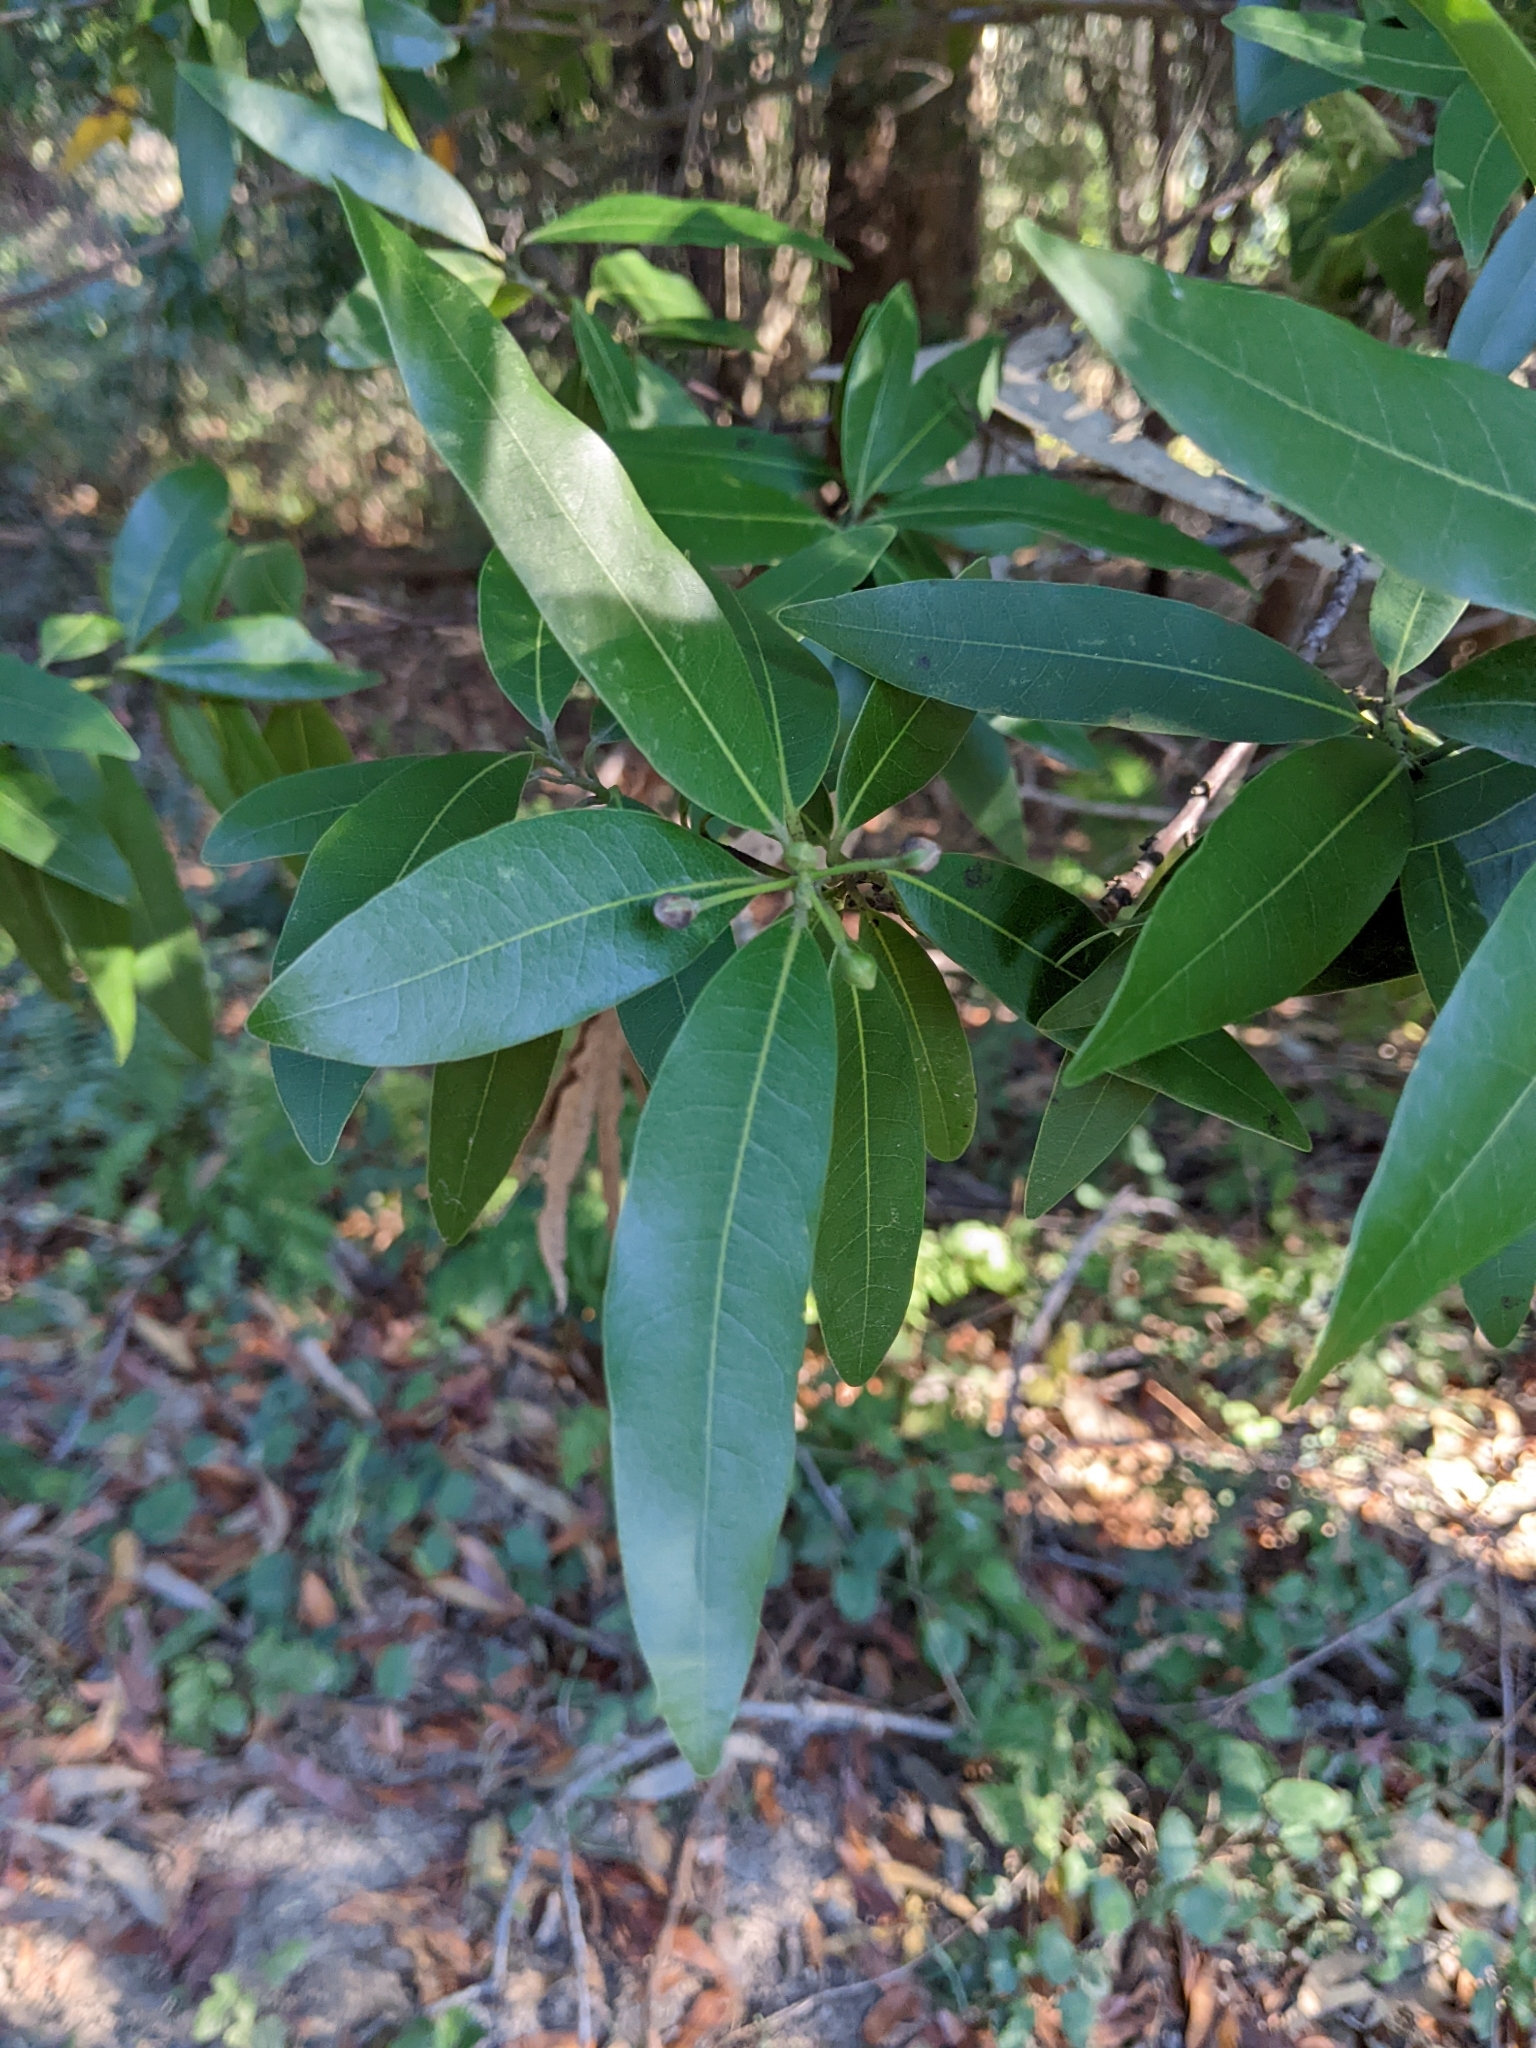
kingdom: Plantae
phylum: Tracheophyta
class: Magnoliopsida
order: Laurales
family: Lauraceae
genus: Umbellularia
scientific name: Umbellularia californica
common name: California bay
